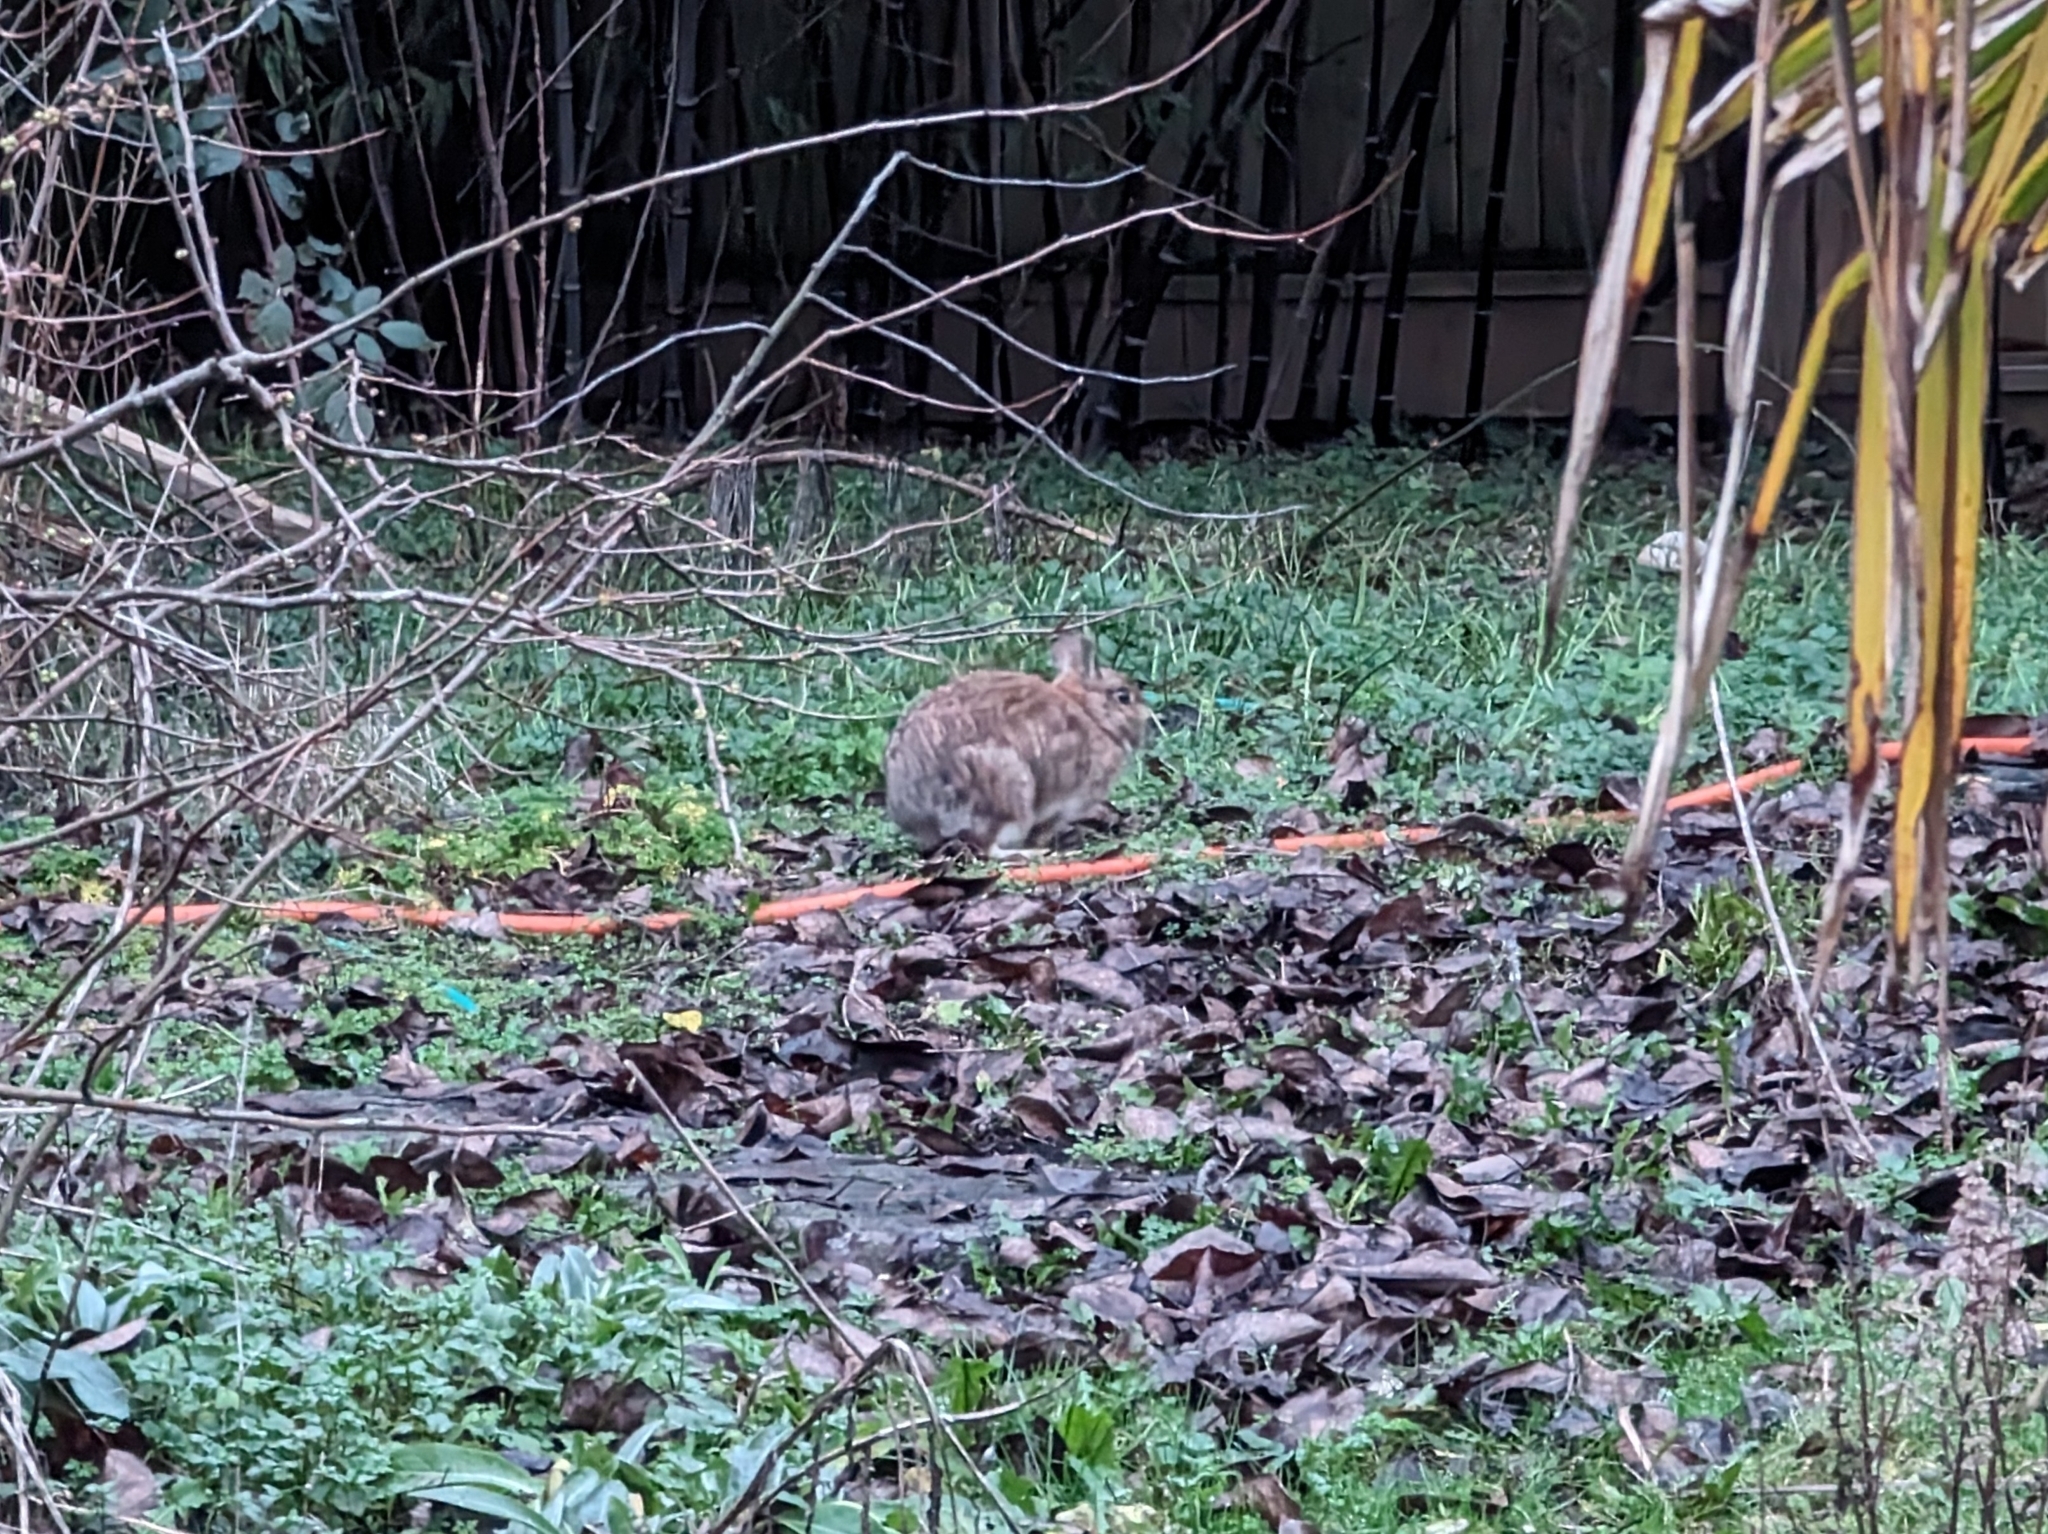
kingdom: Animalia
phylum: Chordata
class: Mammalia
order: Lagomorpha
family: Leporidae
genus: Sylvilagus
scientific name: Sylvilagus floridanus
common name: Eastern cottontail
